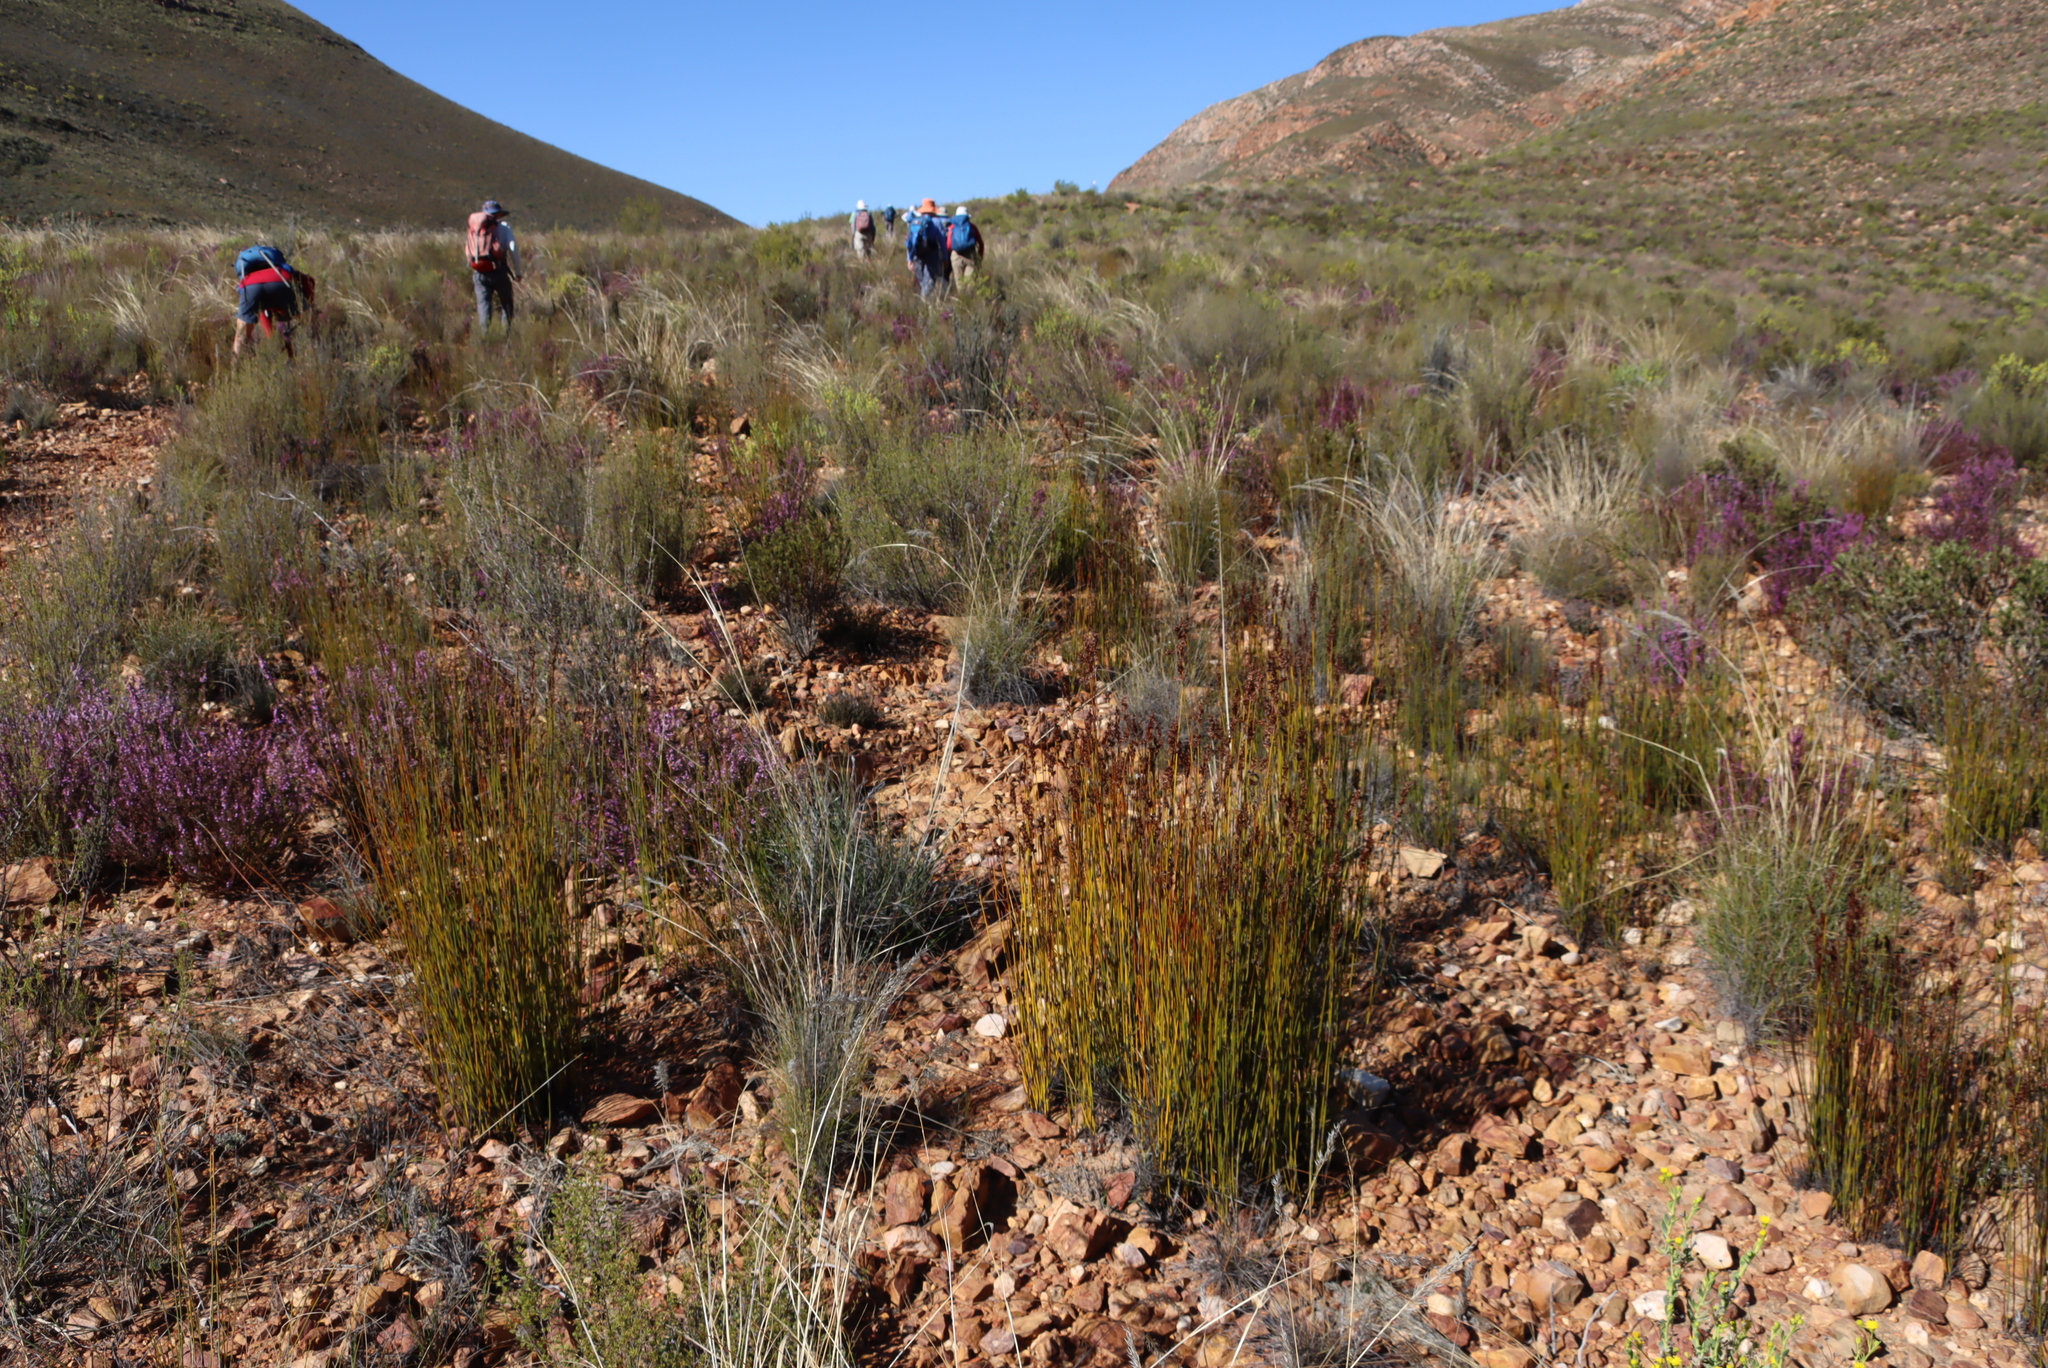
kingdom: Plantae
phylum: Tracheophyta
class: Liliopsida
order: Poales
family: Restionaceae
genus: Rhodocoma
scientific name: Rhodocoma fruticosa
